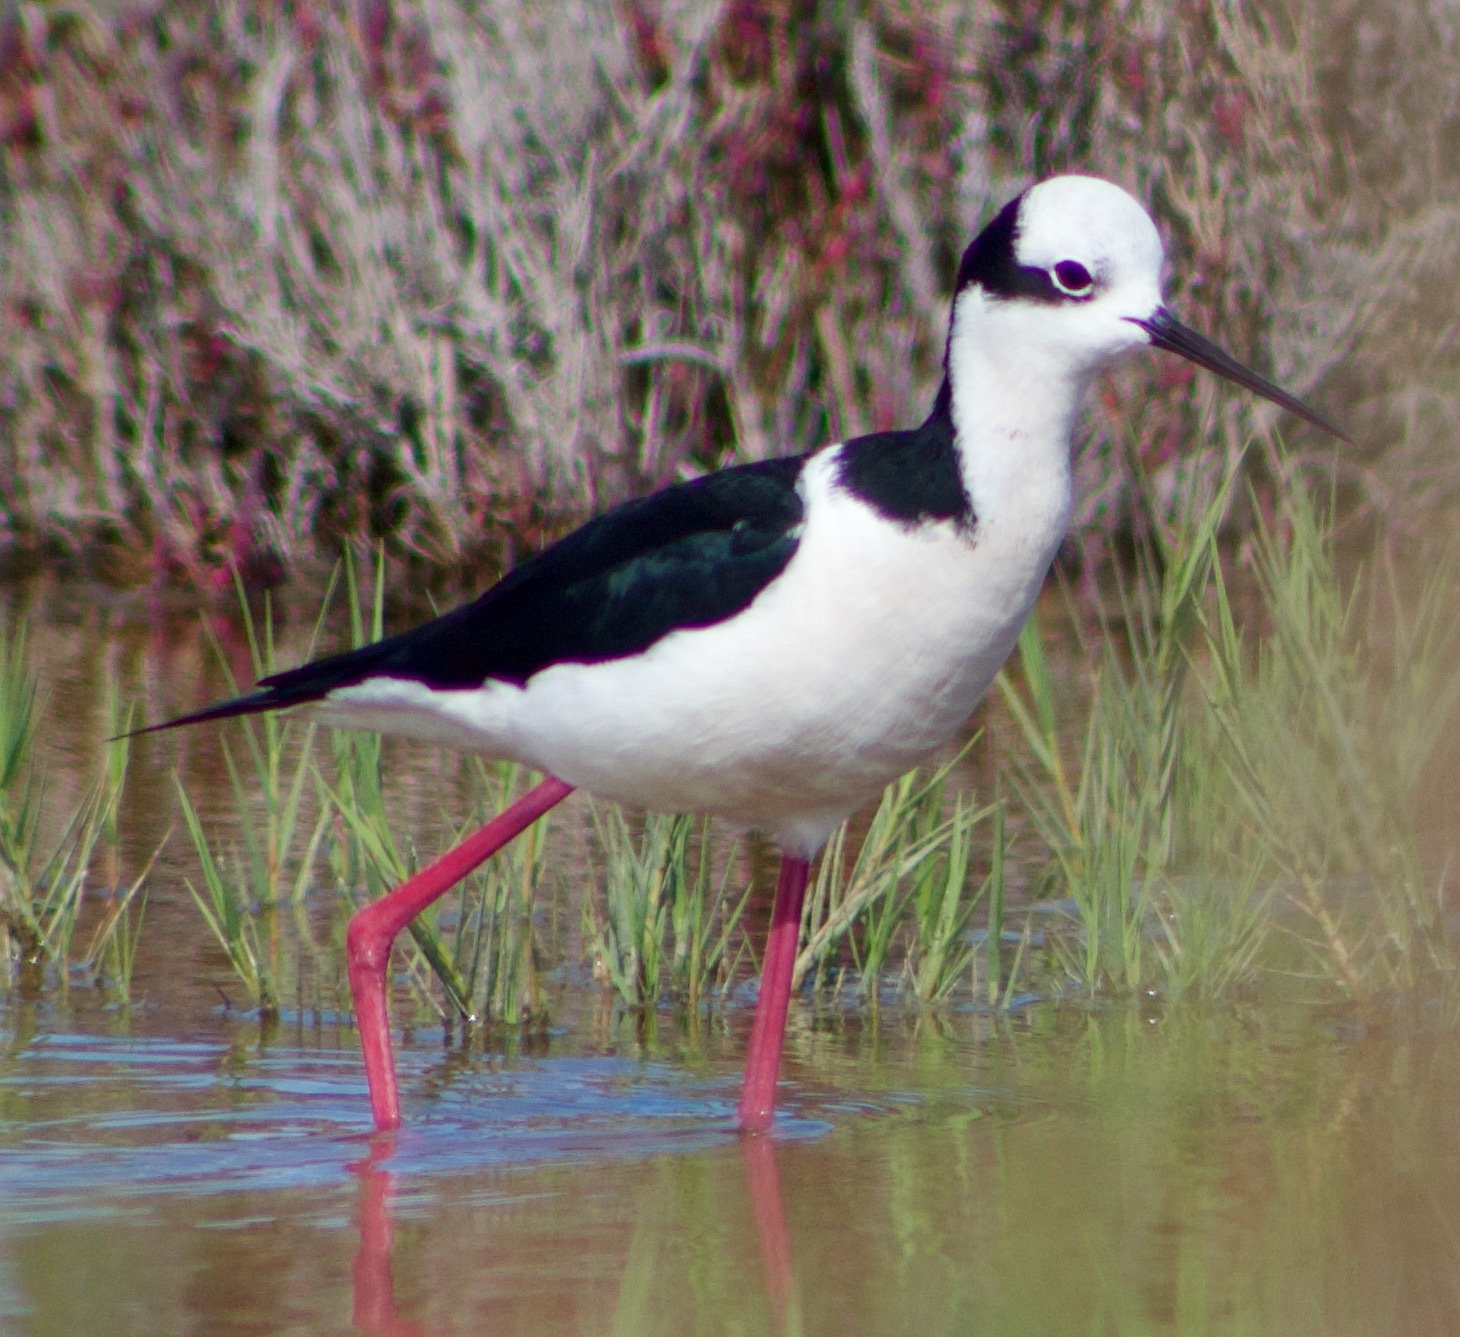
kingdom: Animalia
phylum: Chordata
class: Aves
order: Charadriiformes
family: Recurvirostridae
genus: Himantopus
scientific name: Himantopus mexicanus
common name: Black-necked stilt
